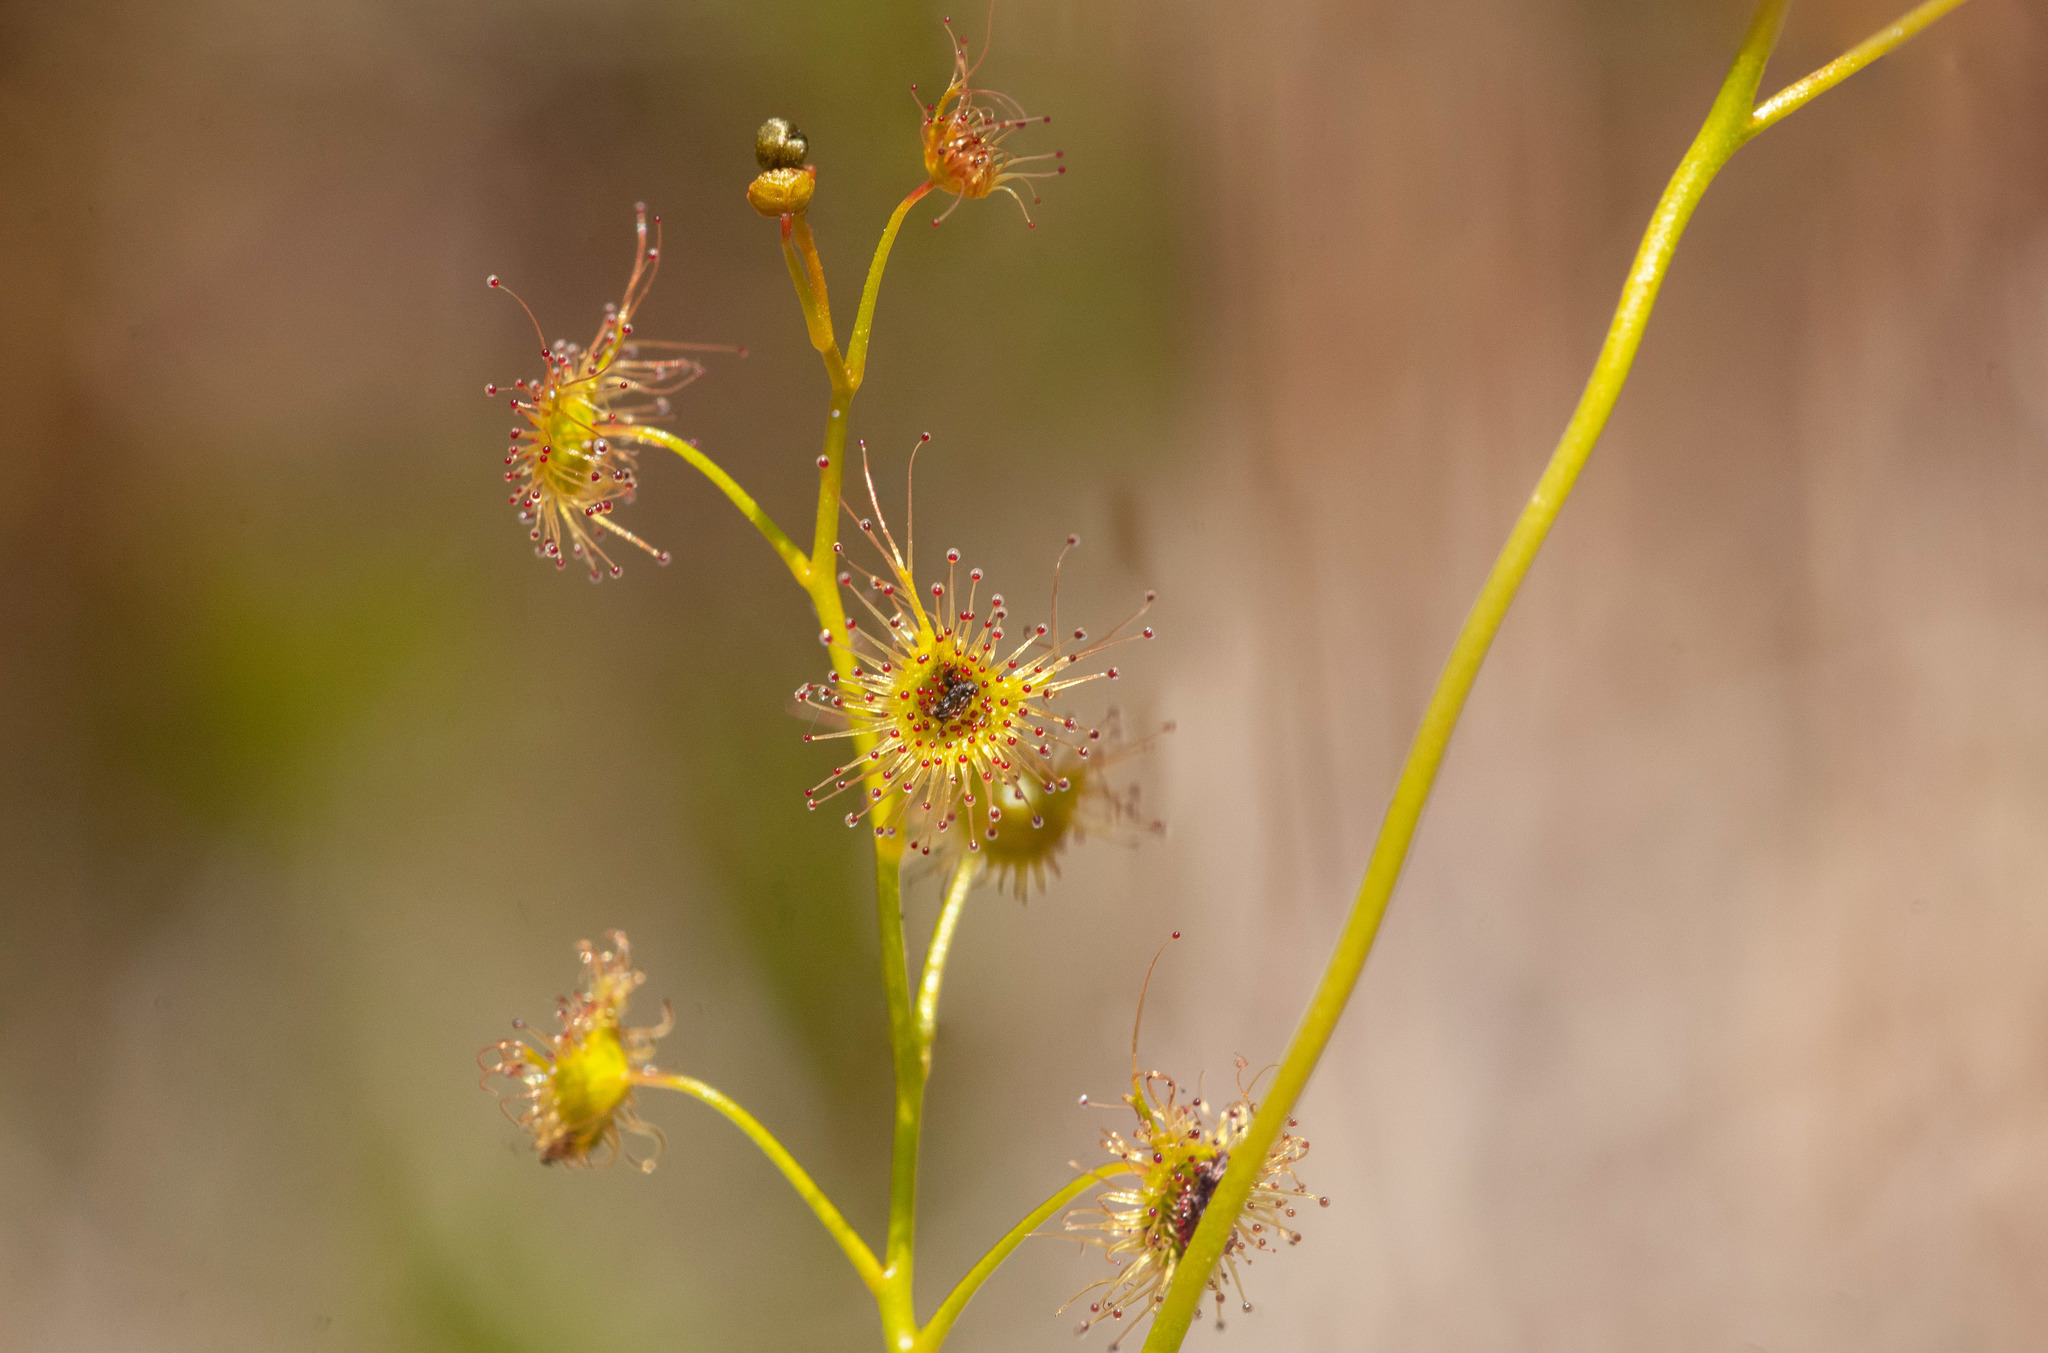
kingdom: Plantae
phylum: Tracheophyta
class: Magnoliopsida
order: Caryophyllales
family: Droseraceae
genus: Drosera
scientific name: Drosera peltata
